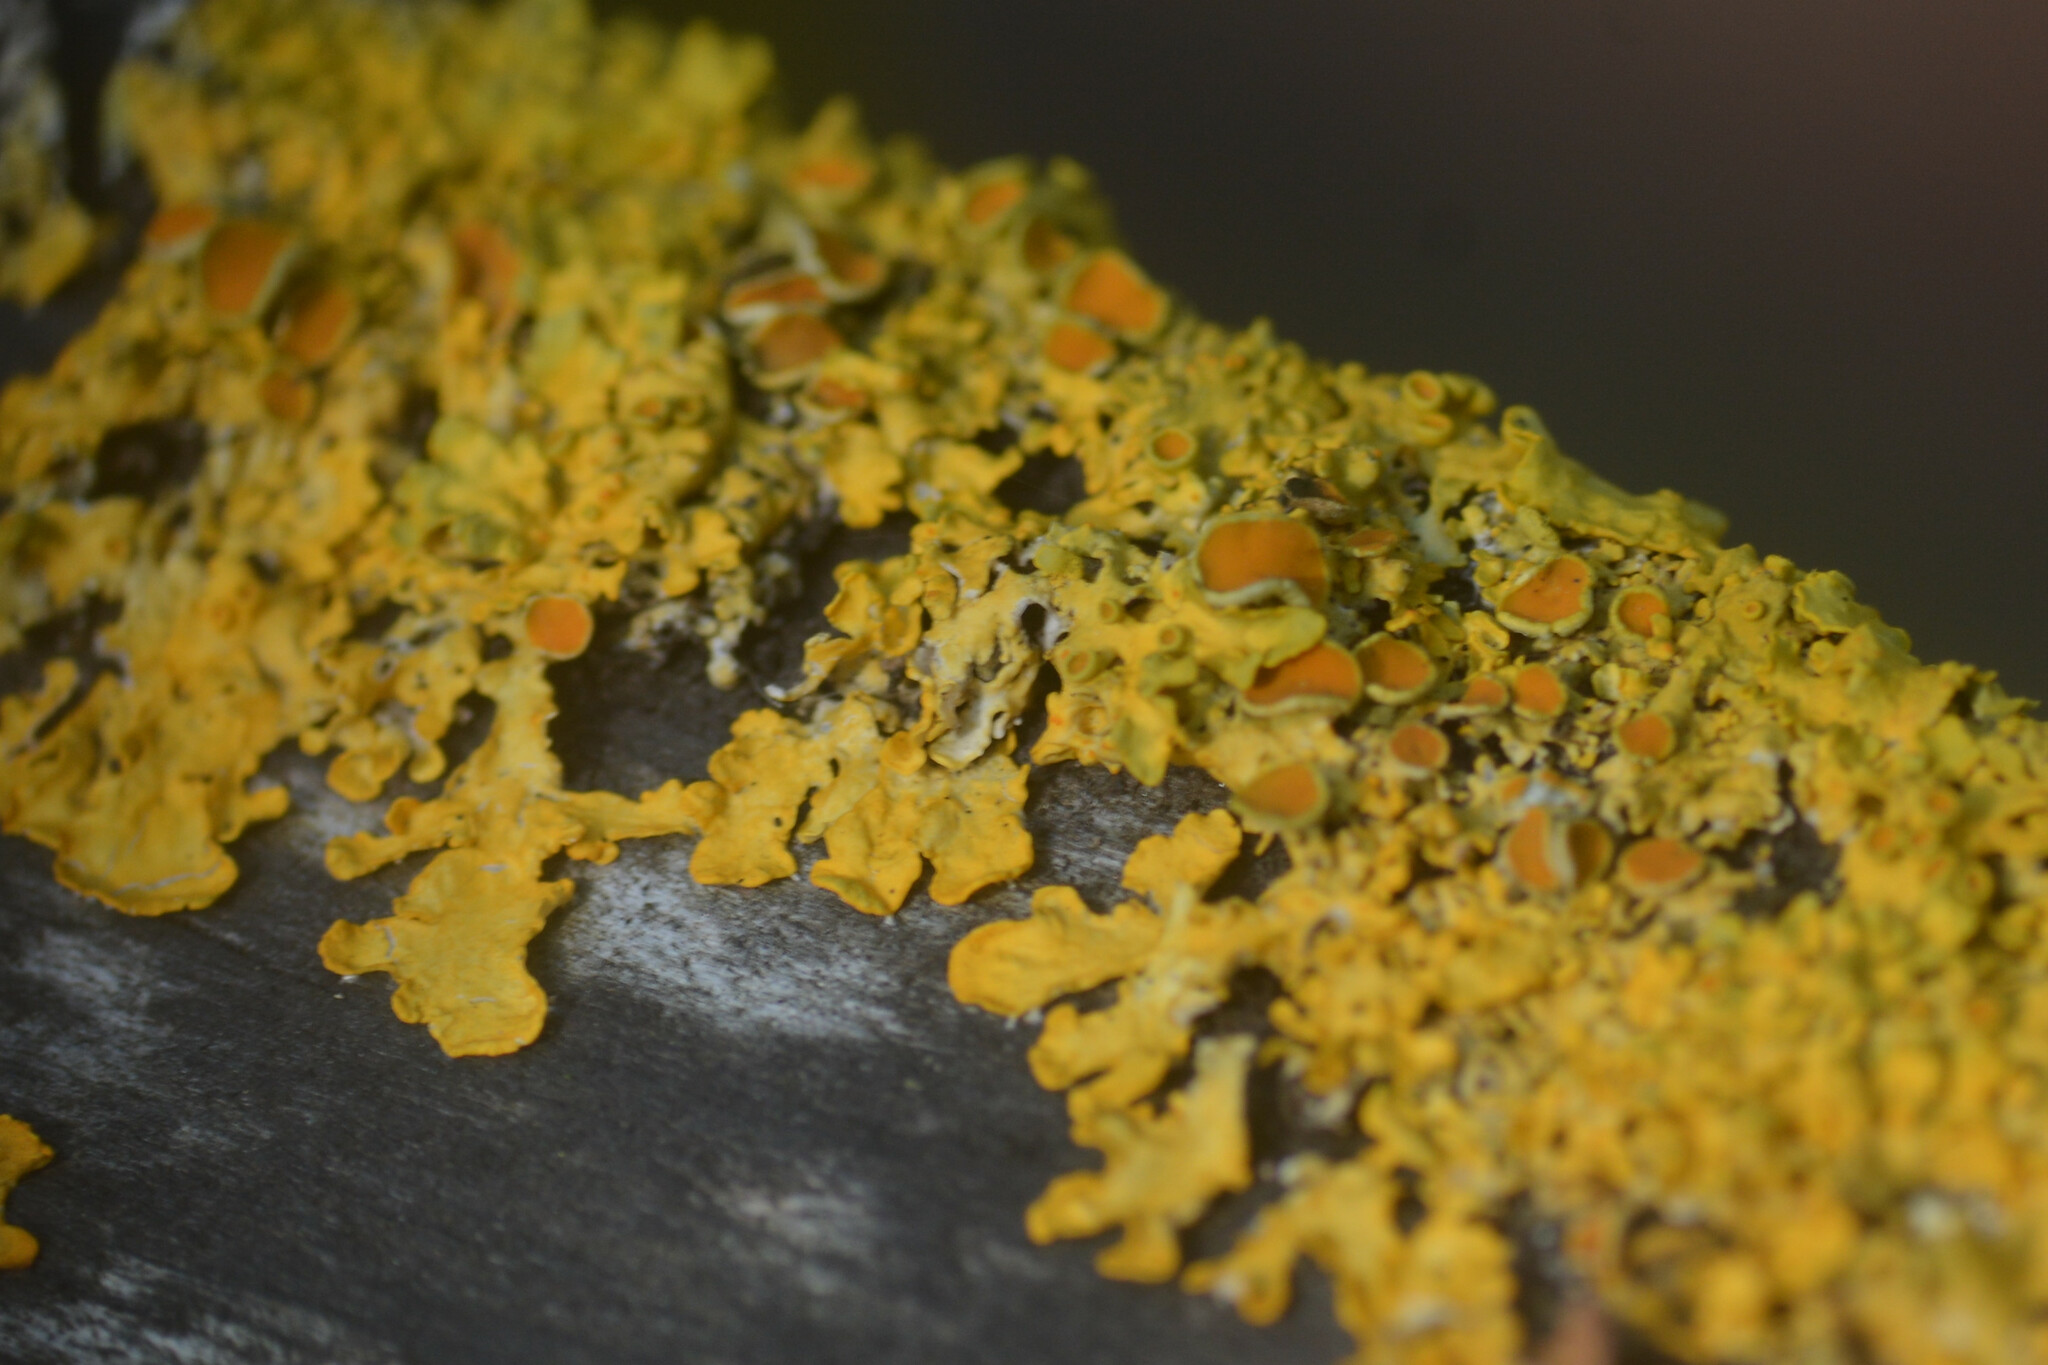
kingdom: Fungi
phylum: Ascomycota
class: Lecanoromycetes
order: Teloschistales
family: Teloschistaceae
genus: Xanthoria
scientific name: Xanthoria parietina
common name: Common orange lichen
